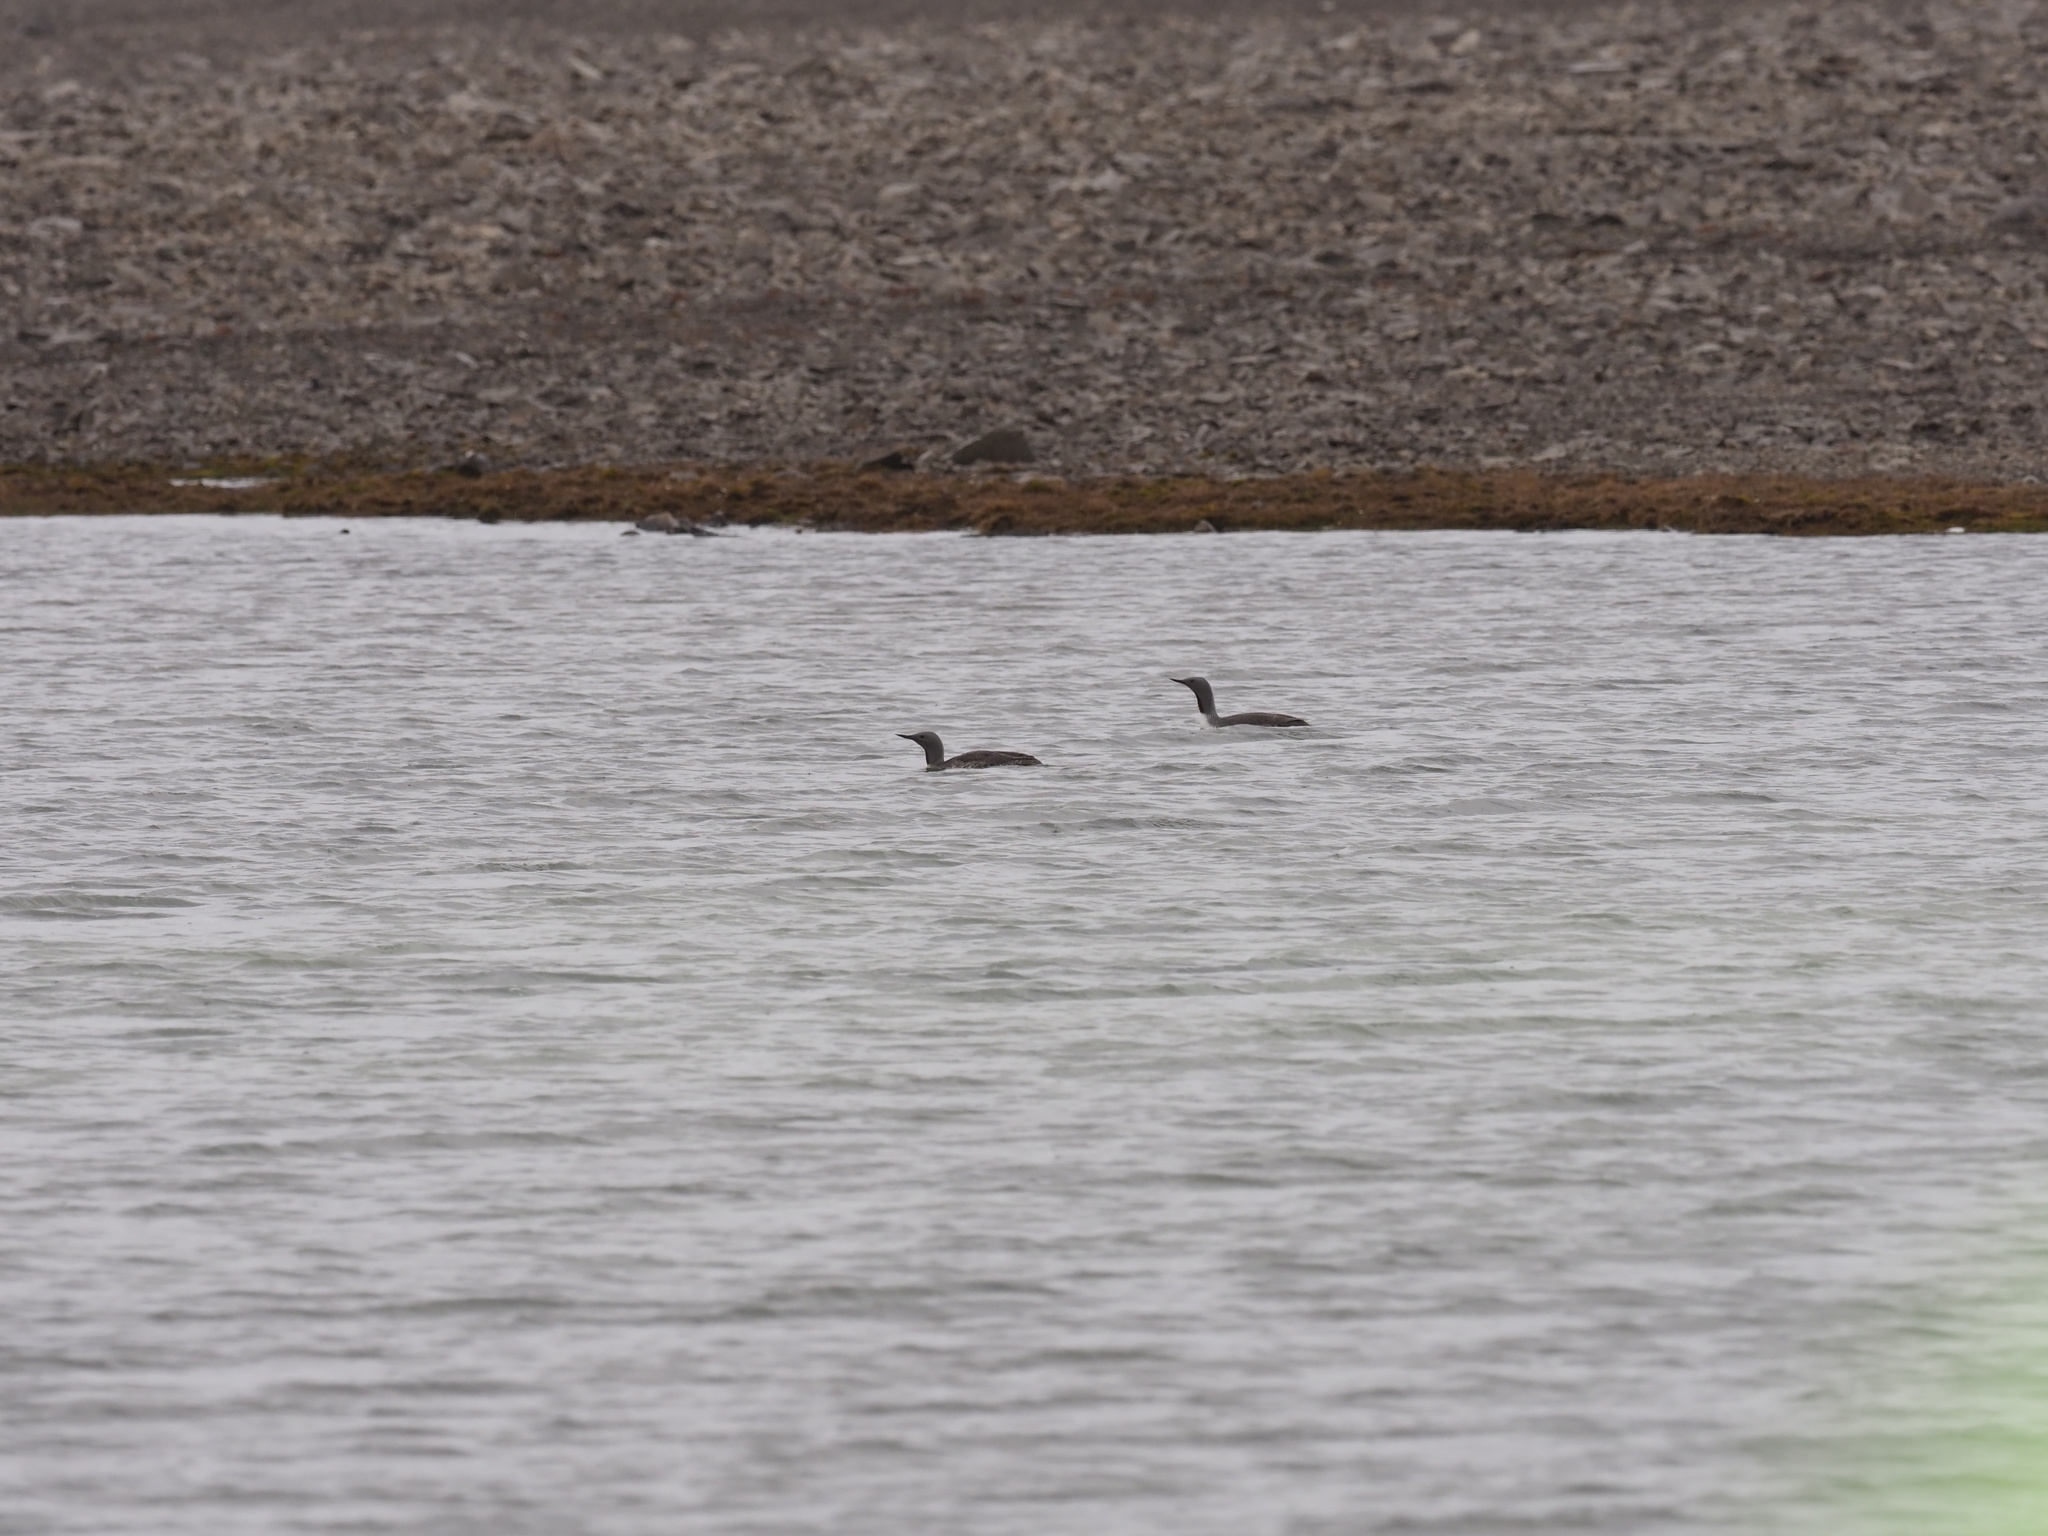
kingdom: Animalia
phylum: Chordata
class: Aves
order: Gaviiformes
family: Gaviidae
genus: Gavia
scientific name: Gavia stellata
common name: Red-throated loon
